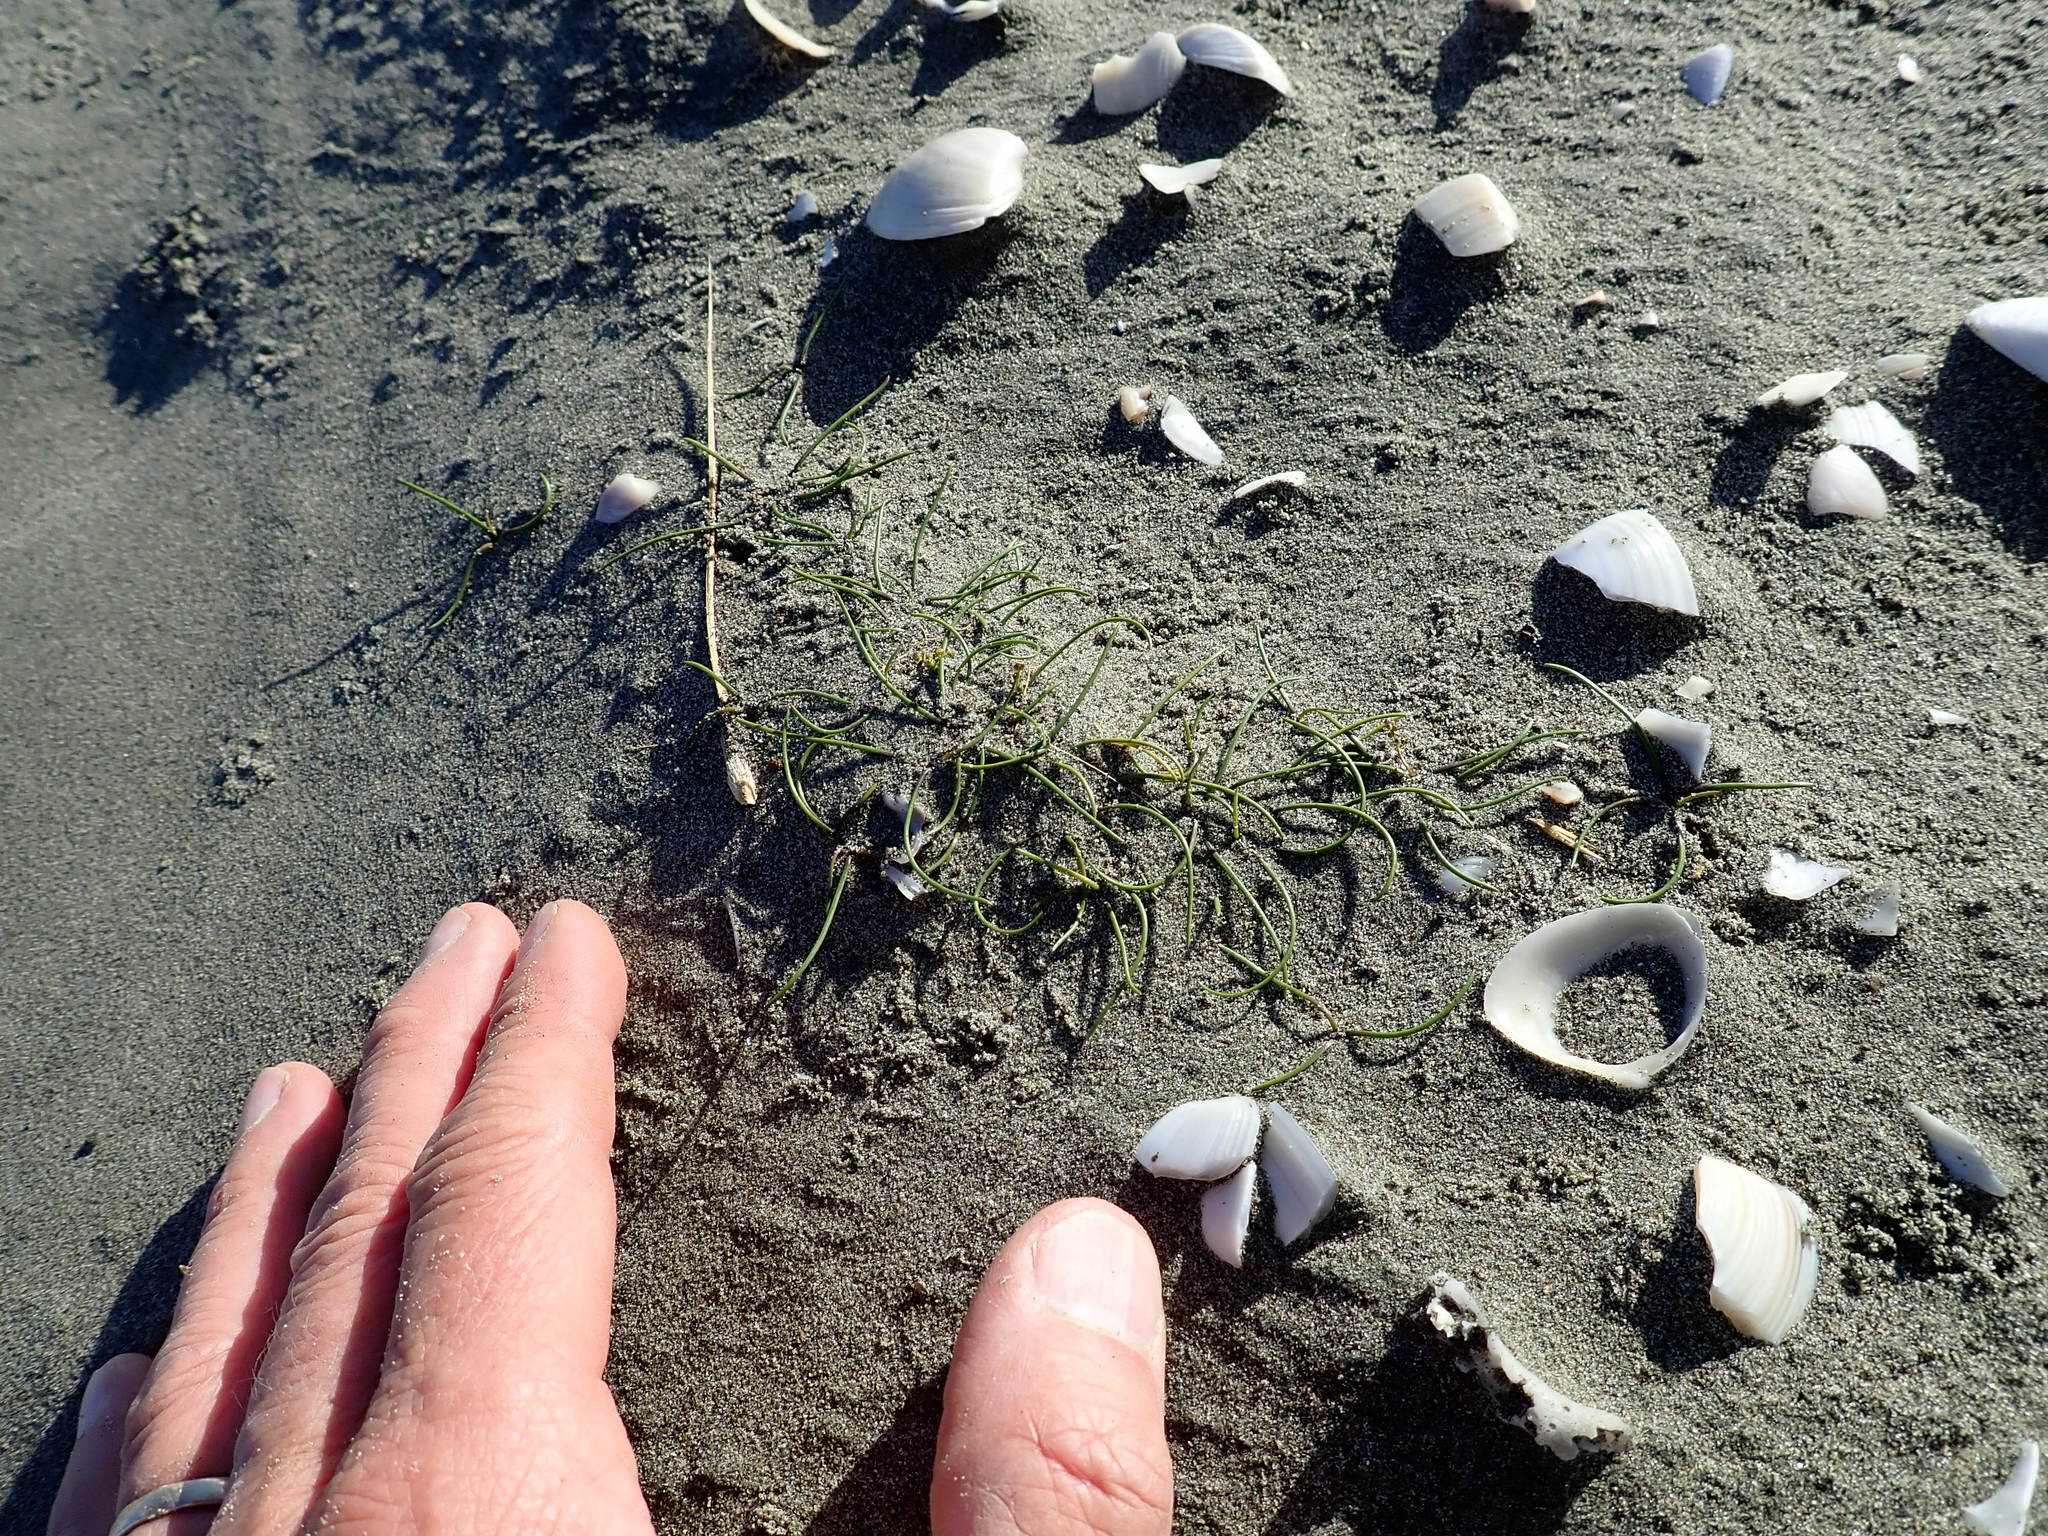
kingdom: Plantae
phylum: Tracheophyta
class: Liliopsida
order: Alismatales
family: Juncaginaceae
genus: Triglochin
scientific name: Triglochin striata
